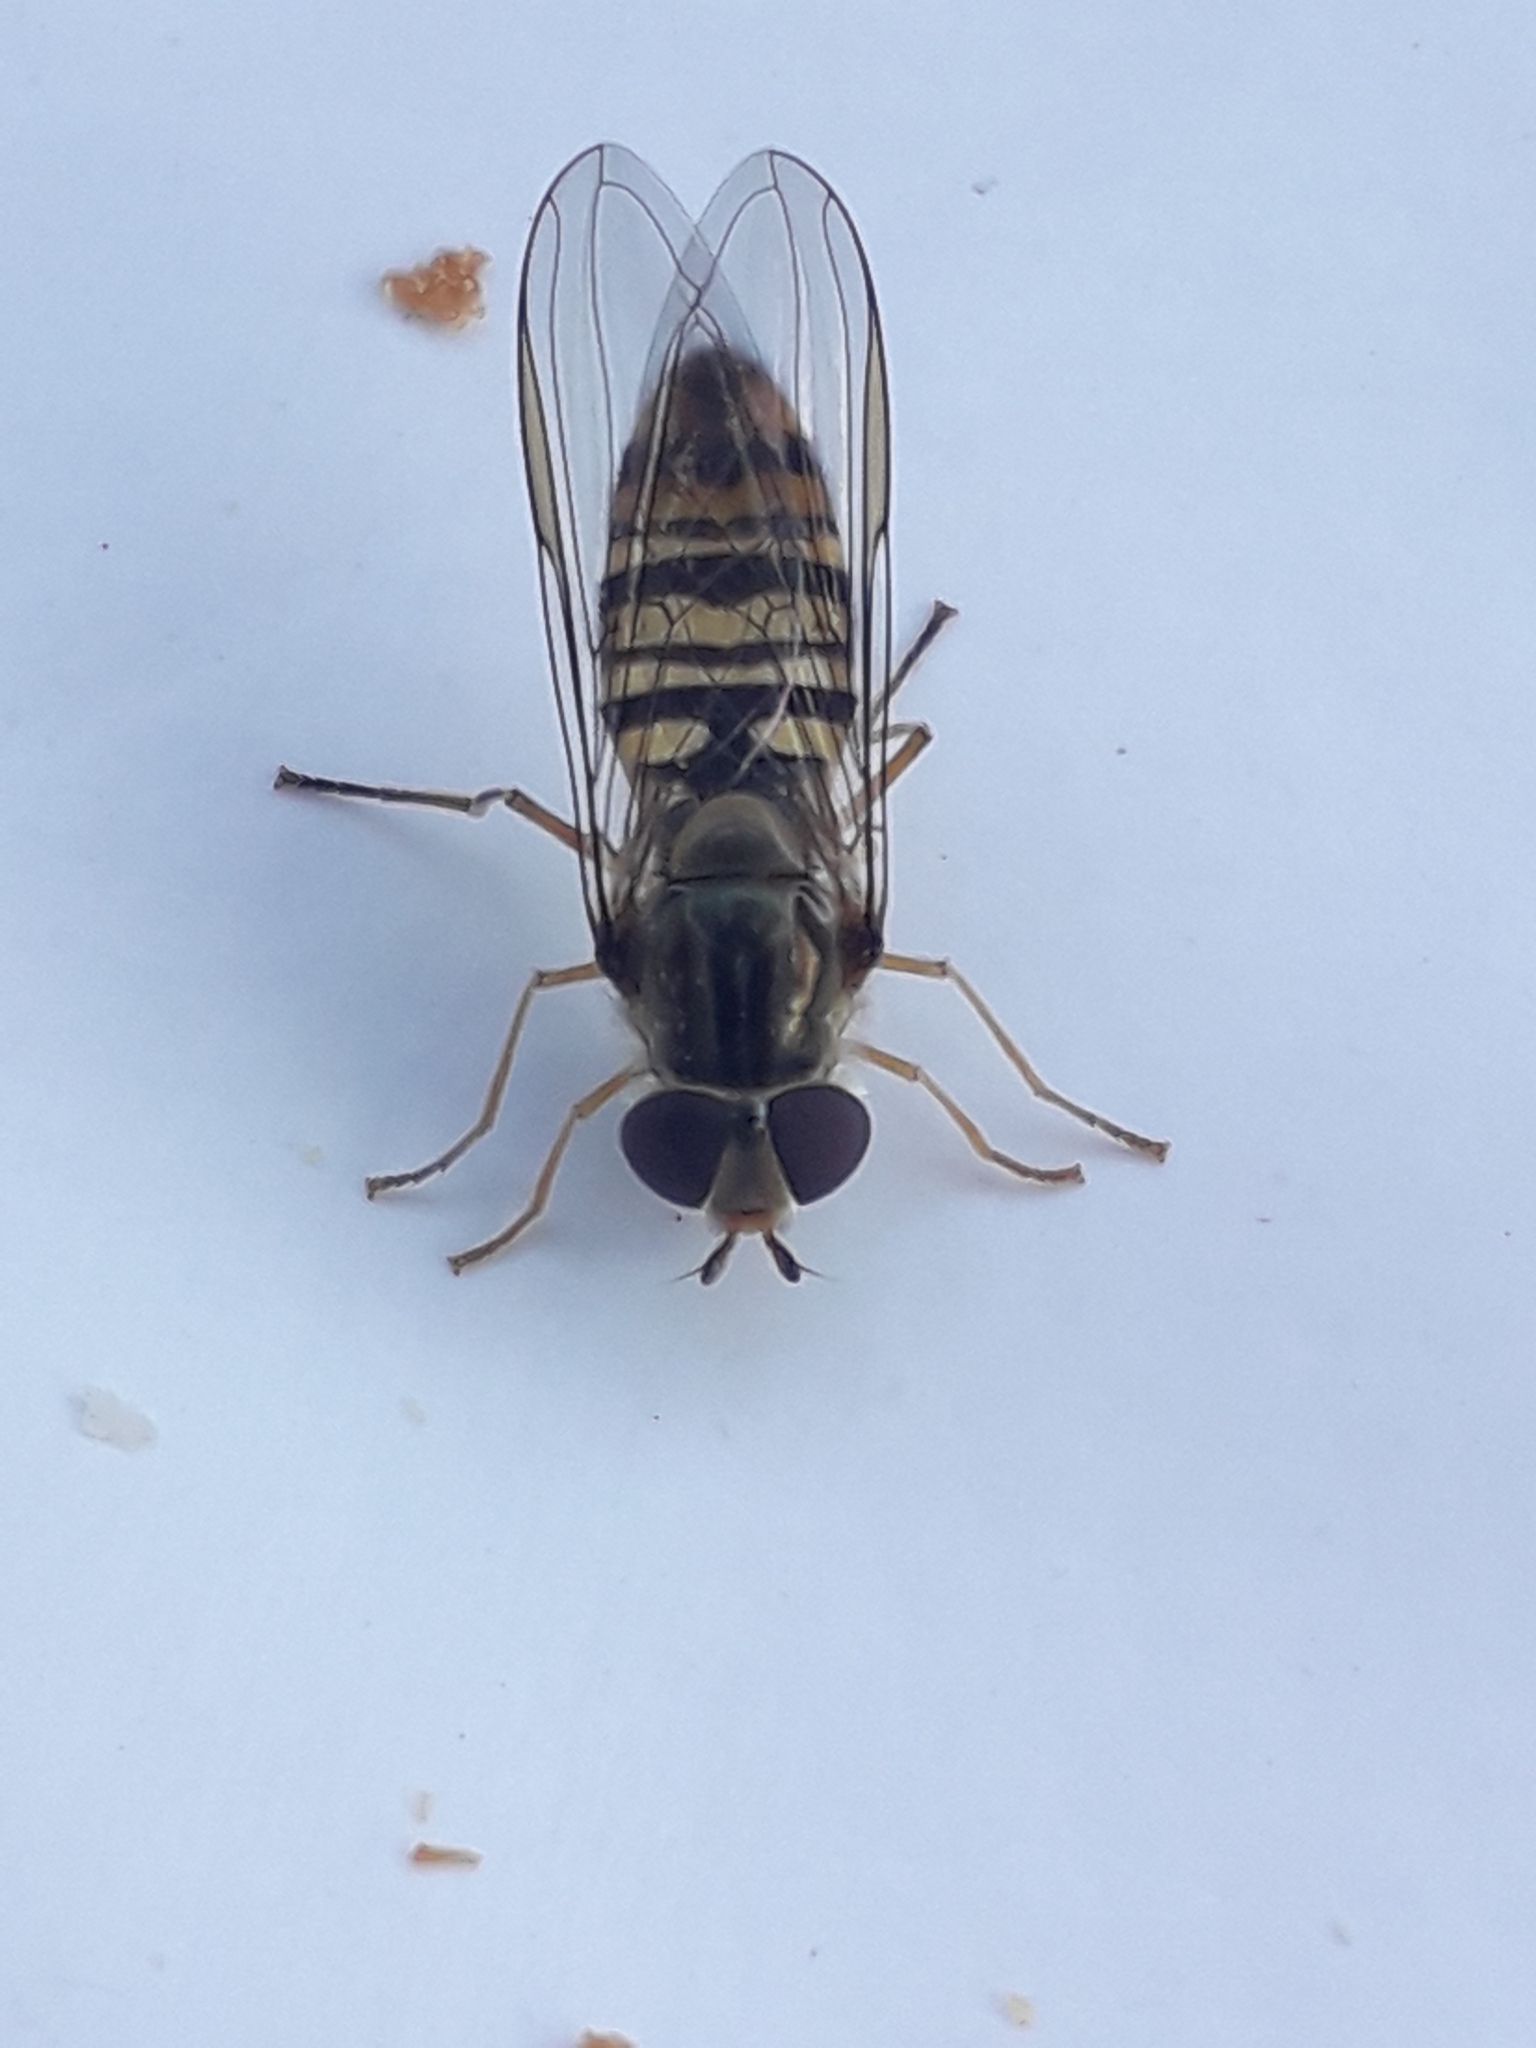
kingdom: Animalia
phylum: Arthropoda
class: Insecta
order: Diptera
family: Syrphidae
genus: Episyrphus
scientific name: Episyrphus balteatus
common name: Marmalade hoverfly
